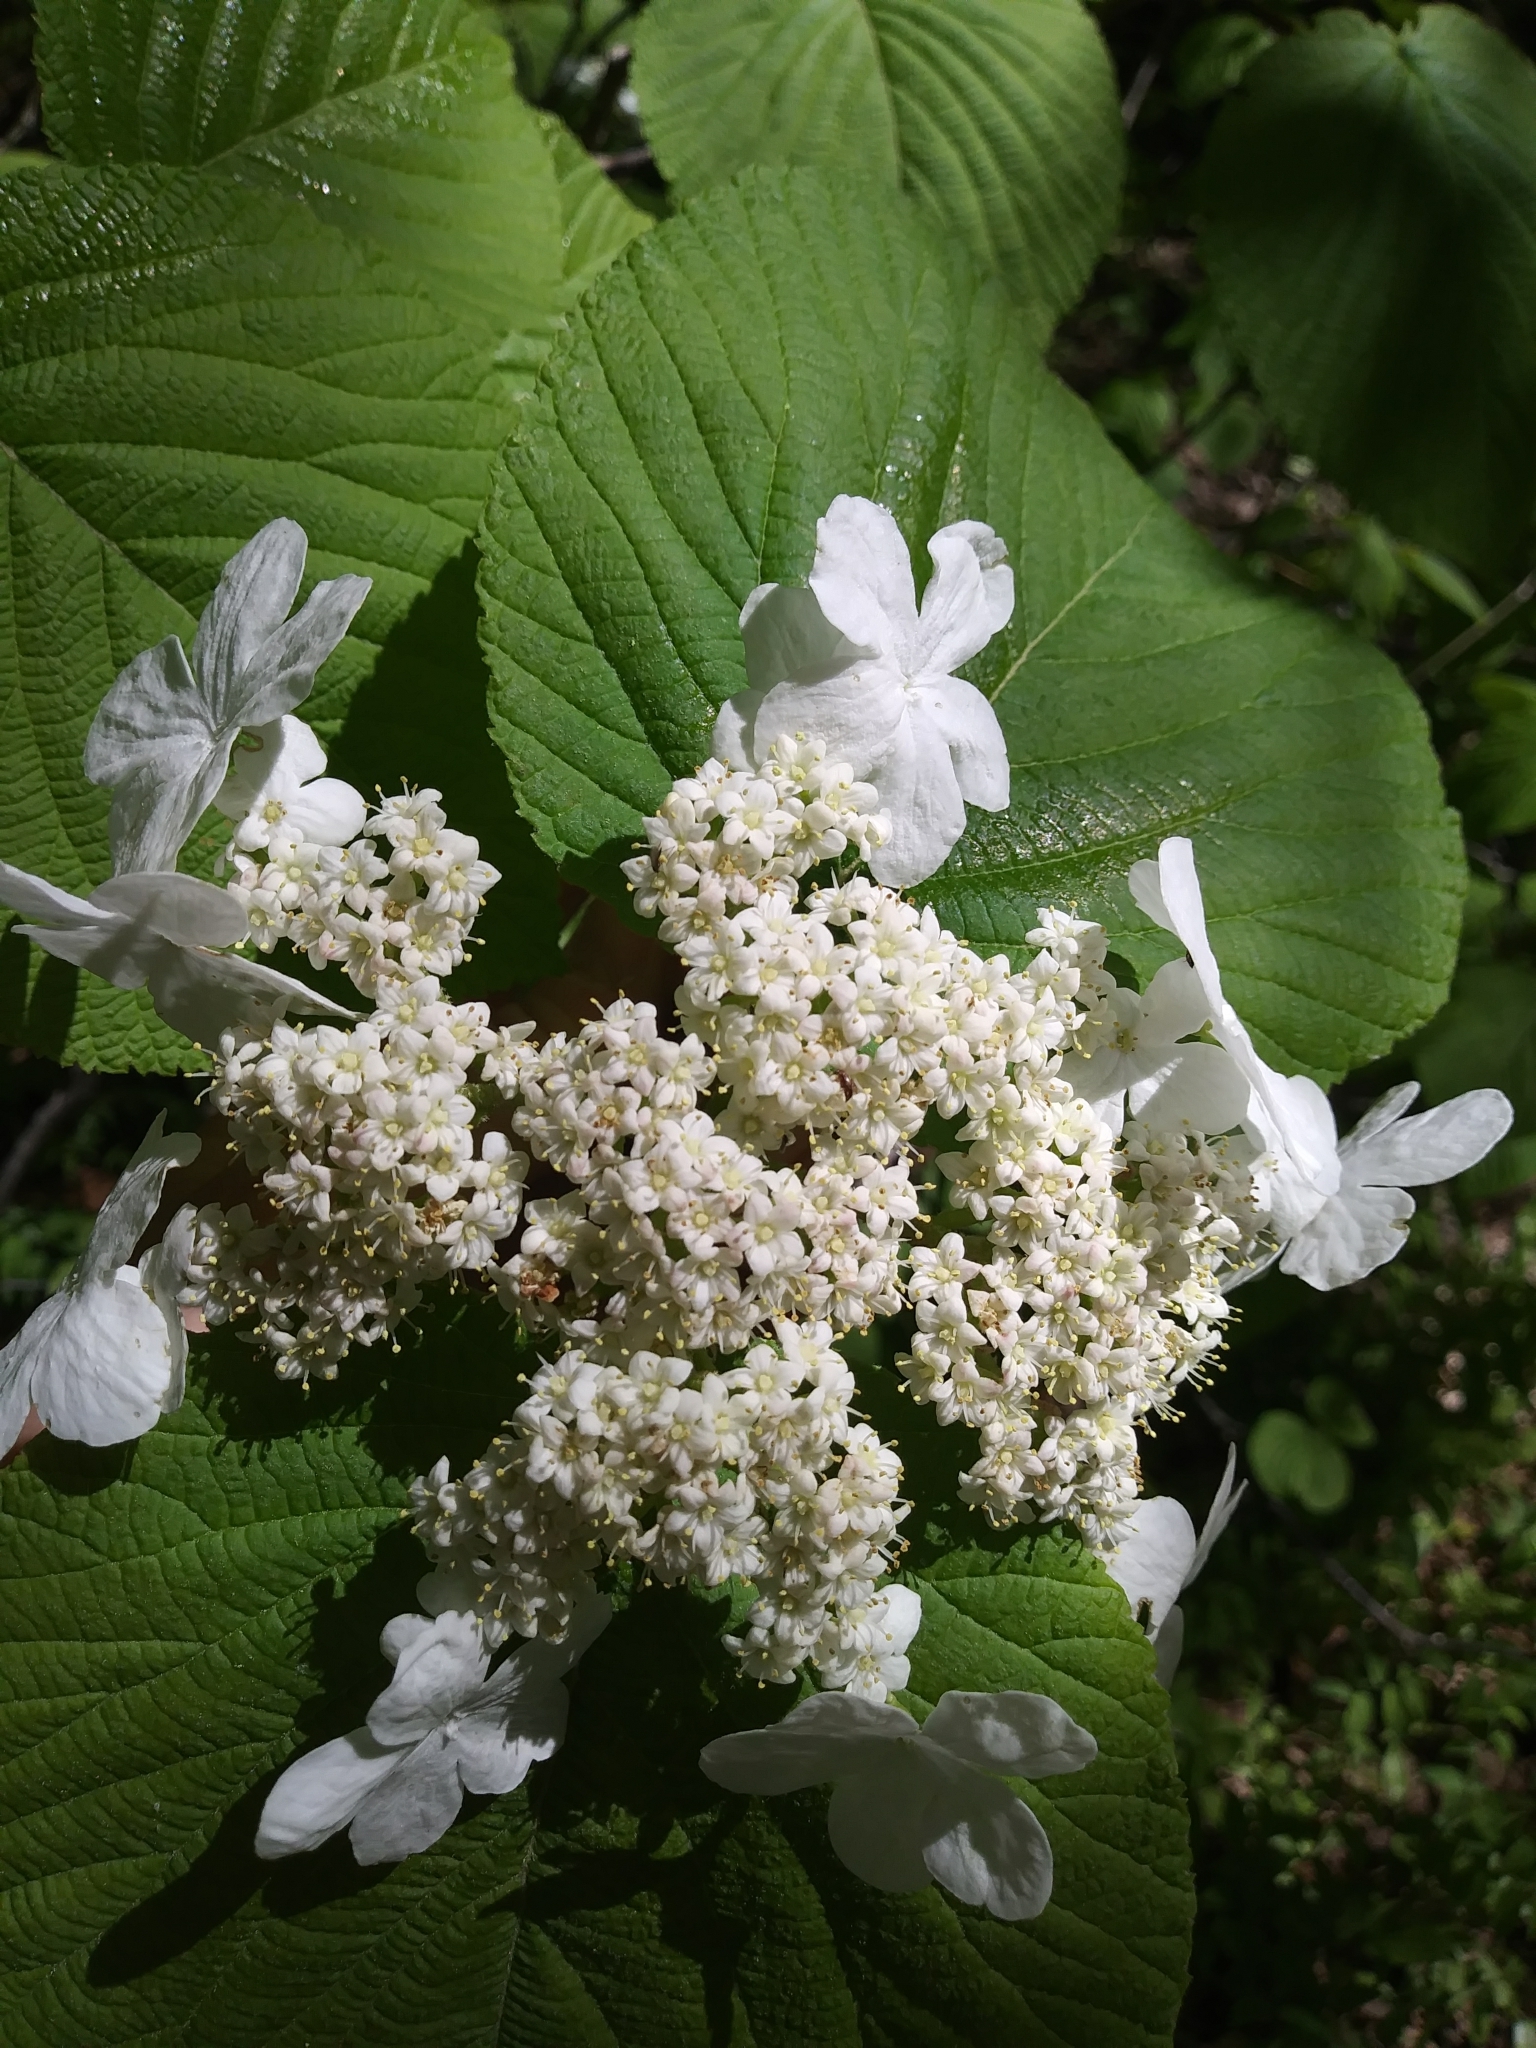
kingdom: Plantae
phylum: Tracheophyta
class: Magnoliopsida
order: Dipsacales
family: Viburnaceae
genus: Viburnum
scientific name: Viburnum lantanoides
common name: Hobblebush
